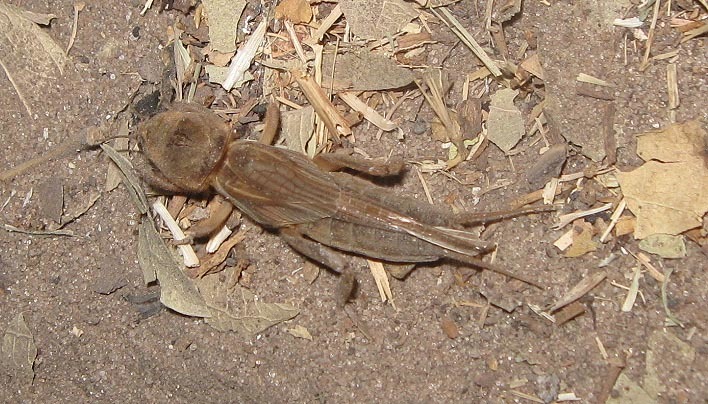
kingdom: Animalia
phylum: Arthropoda
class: Insecta
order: Orthoptera
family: Gryllotalpidae
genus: Gryllotalpa
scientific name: Gryllotalpa africana
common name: African mole cricket
